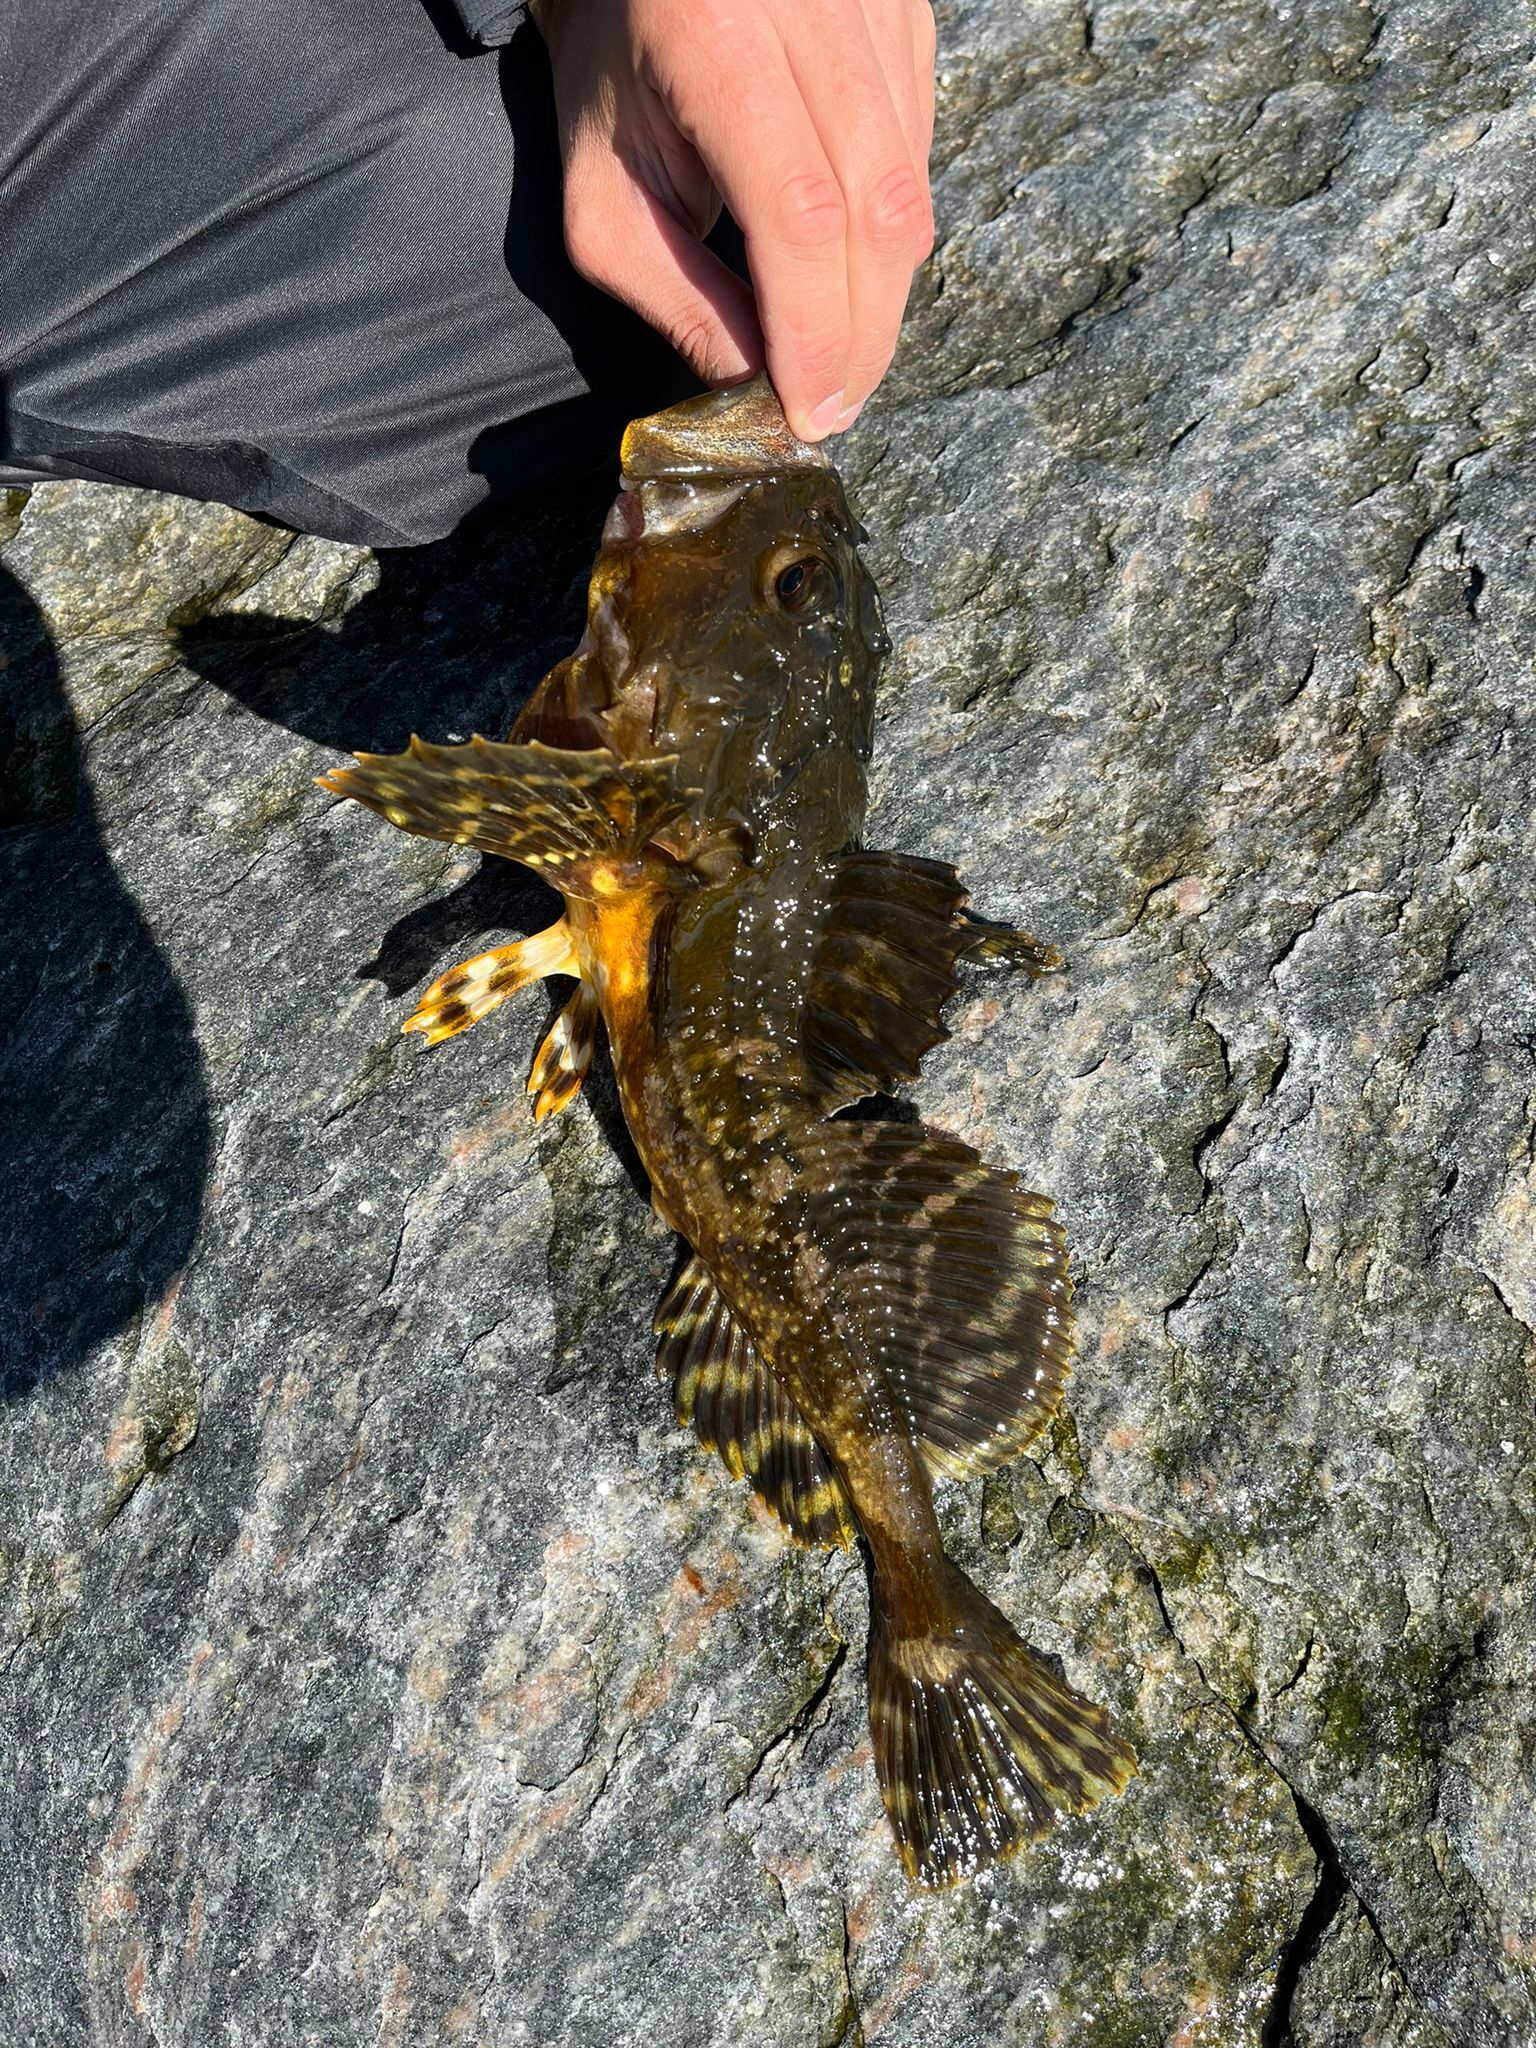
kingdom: Animalia
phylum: Chordata
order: Scorpaeniformes
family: Cottidae
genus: Myoxocephalus
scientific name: Myoxocephalus scorpius
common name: Shorthorn sculpin
